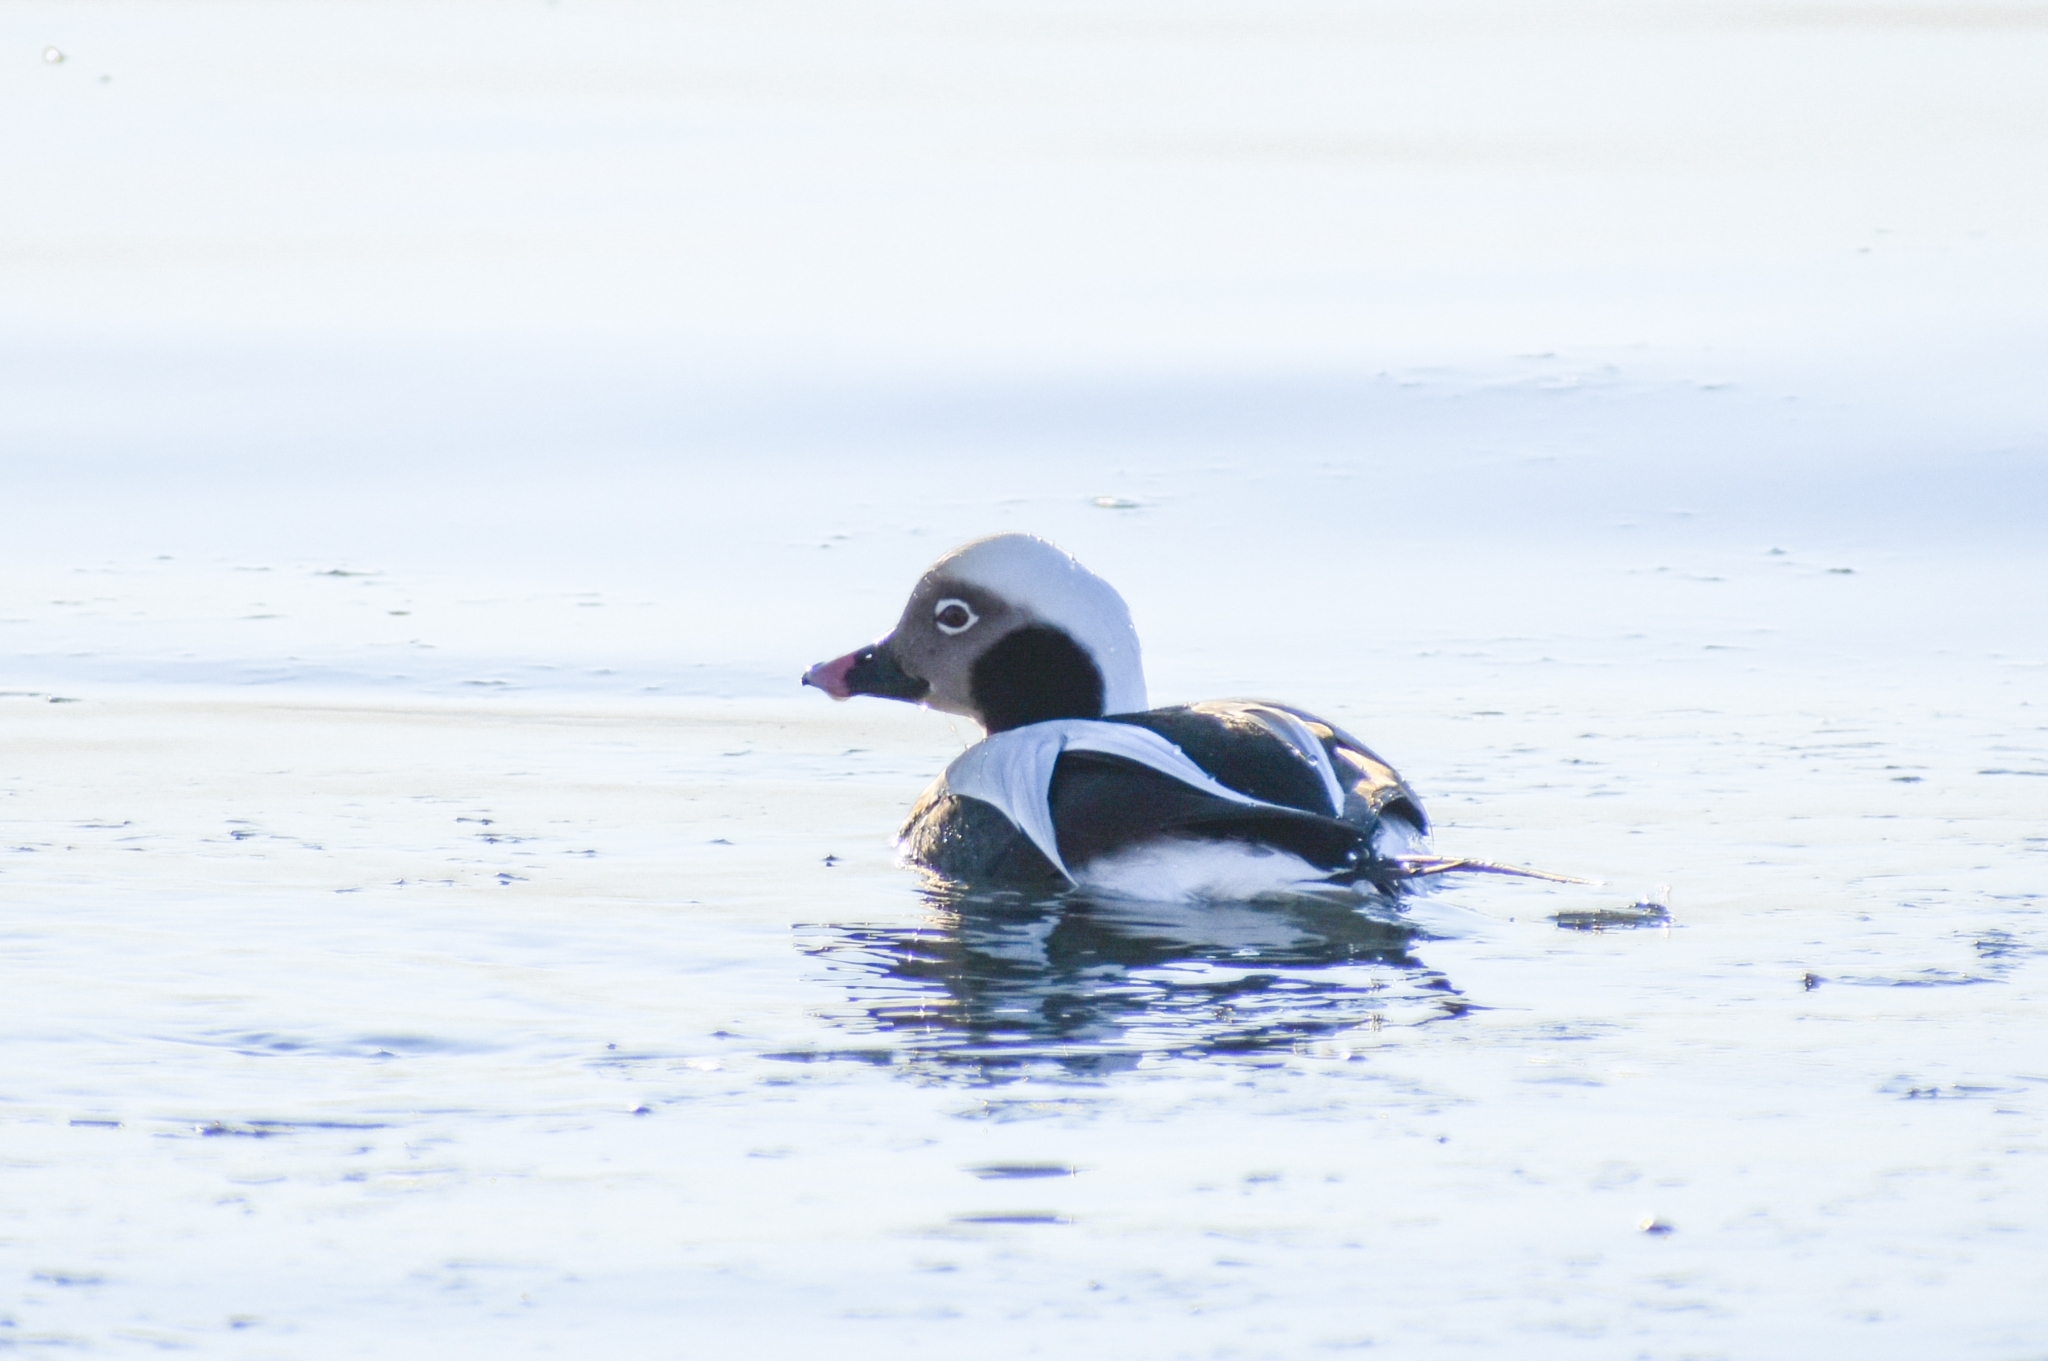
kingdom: Animalia
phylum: Chordata
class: Aves
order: Anseriformes
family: Anatidae
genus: Clangula
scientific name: Clangula hyemalis
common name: Long-tailed duck
